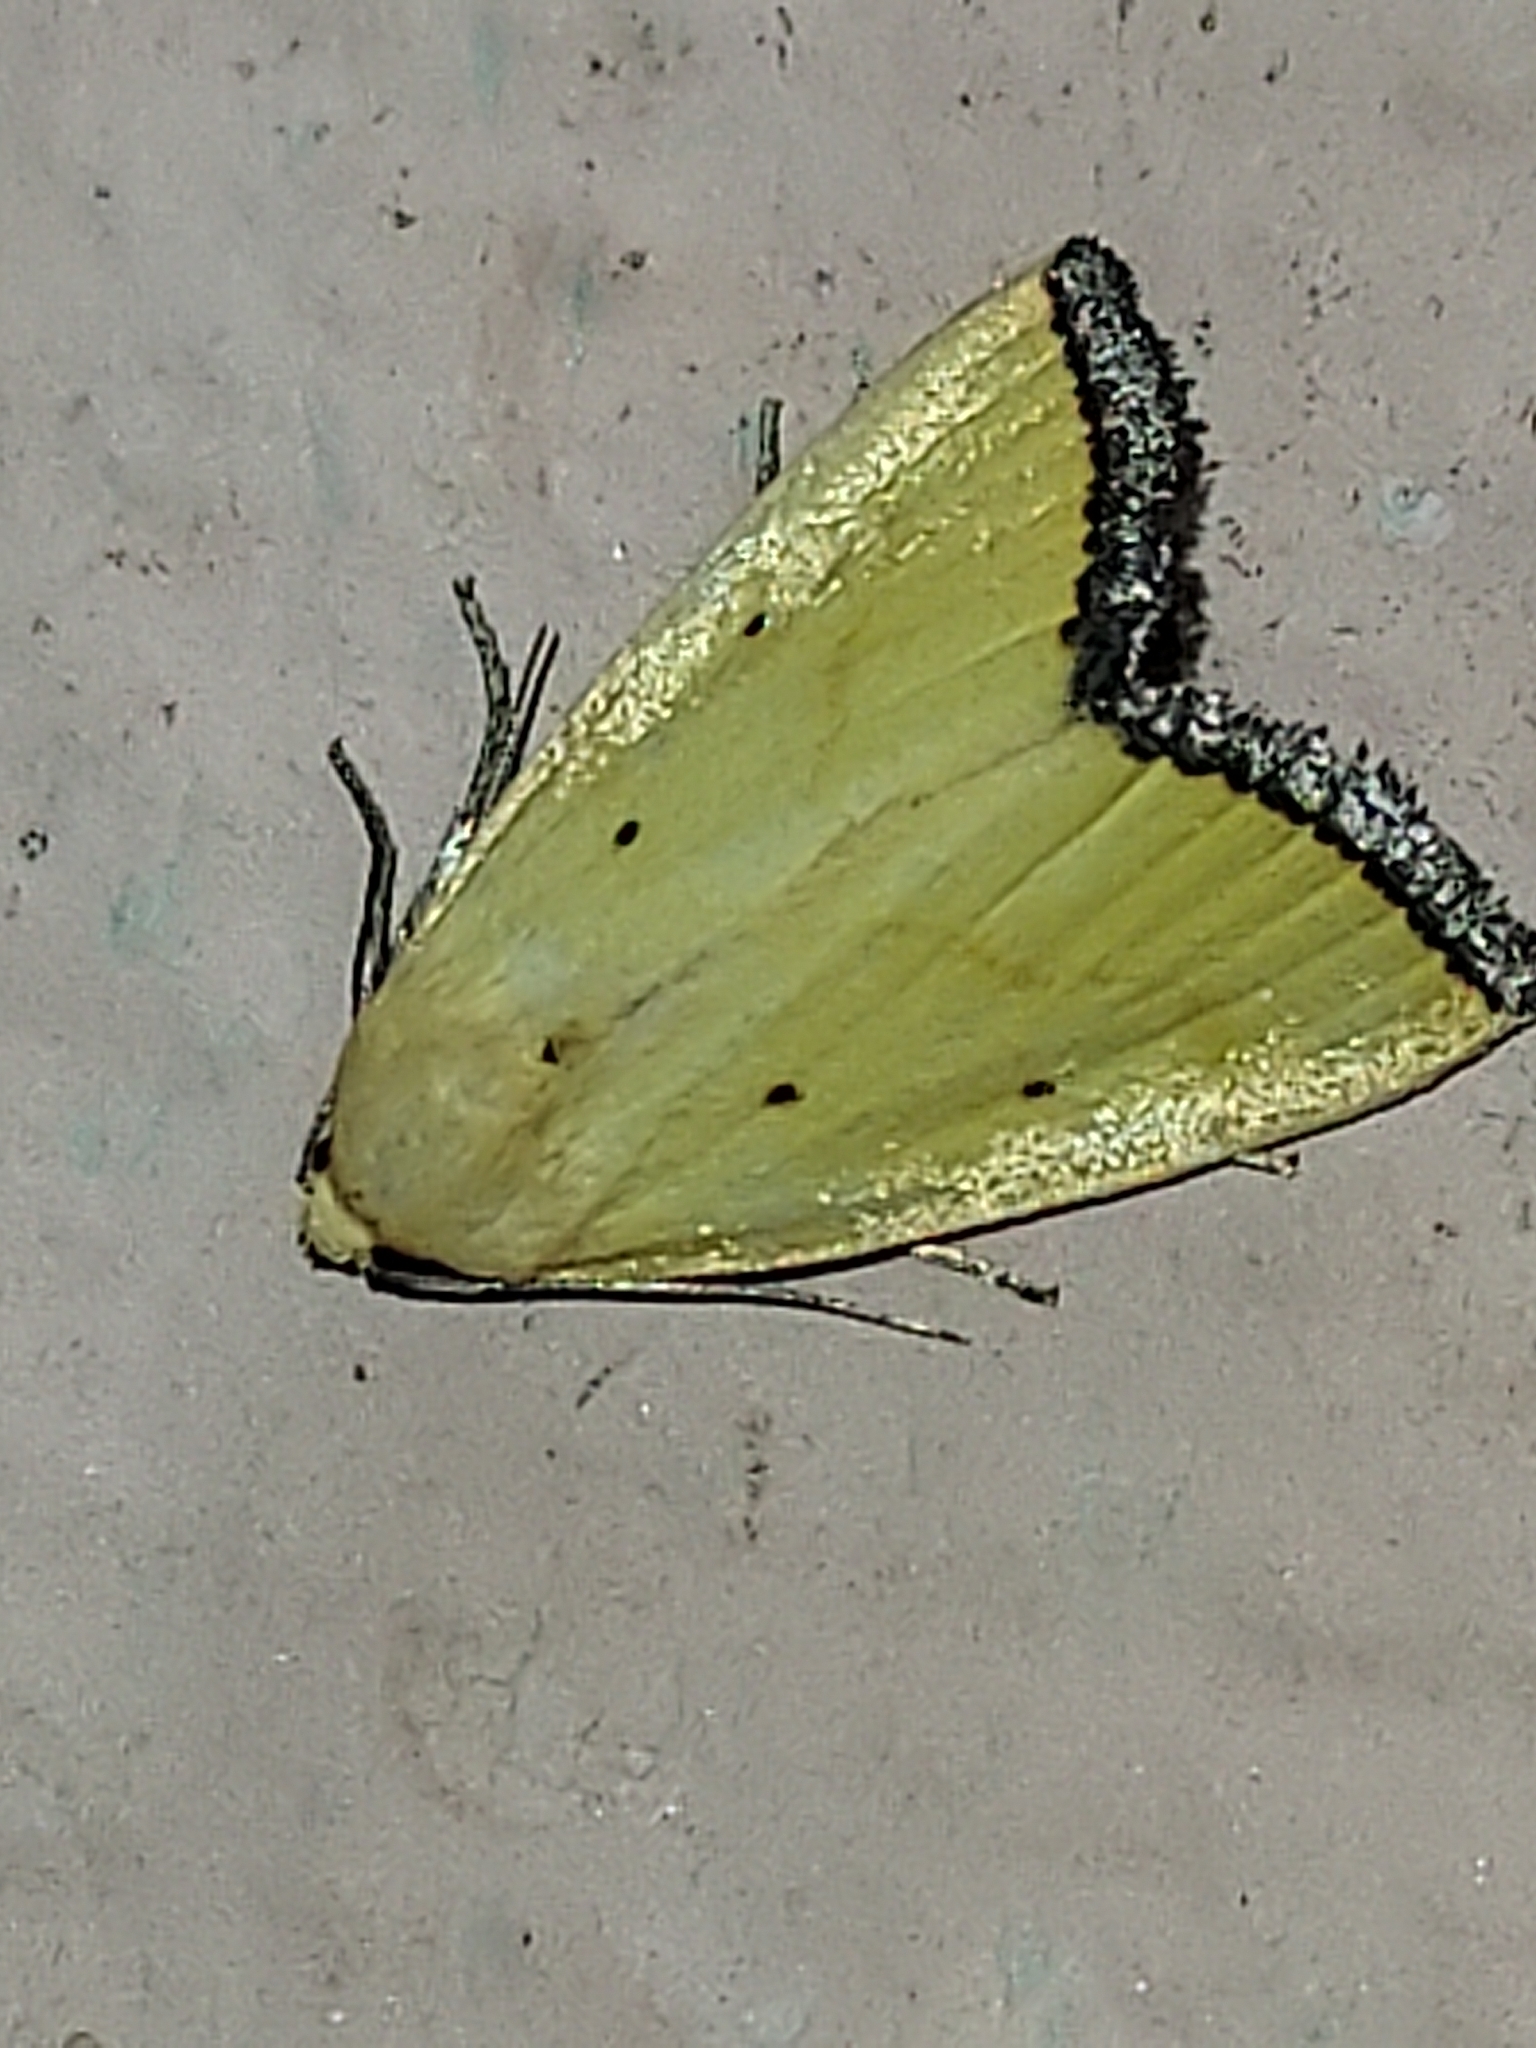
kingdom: Animalia
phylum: Arthropoda
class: Insecta
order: Lepidoptera
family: Noctuidae
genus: Marimatha
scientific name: Marimatha nigrofimbria
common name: Black-bordered lemon moth
